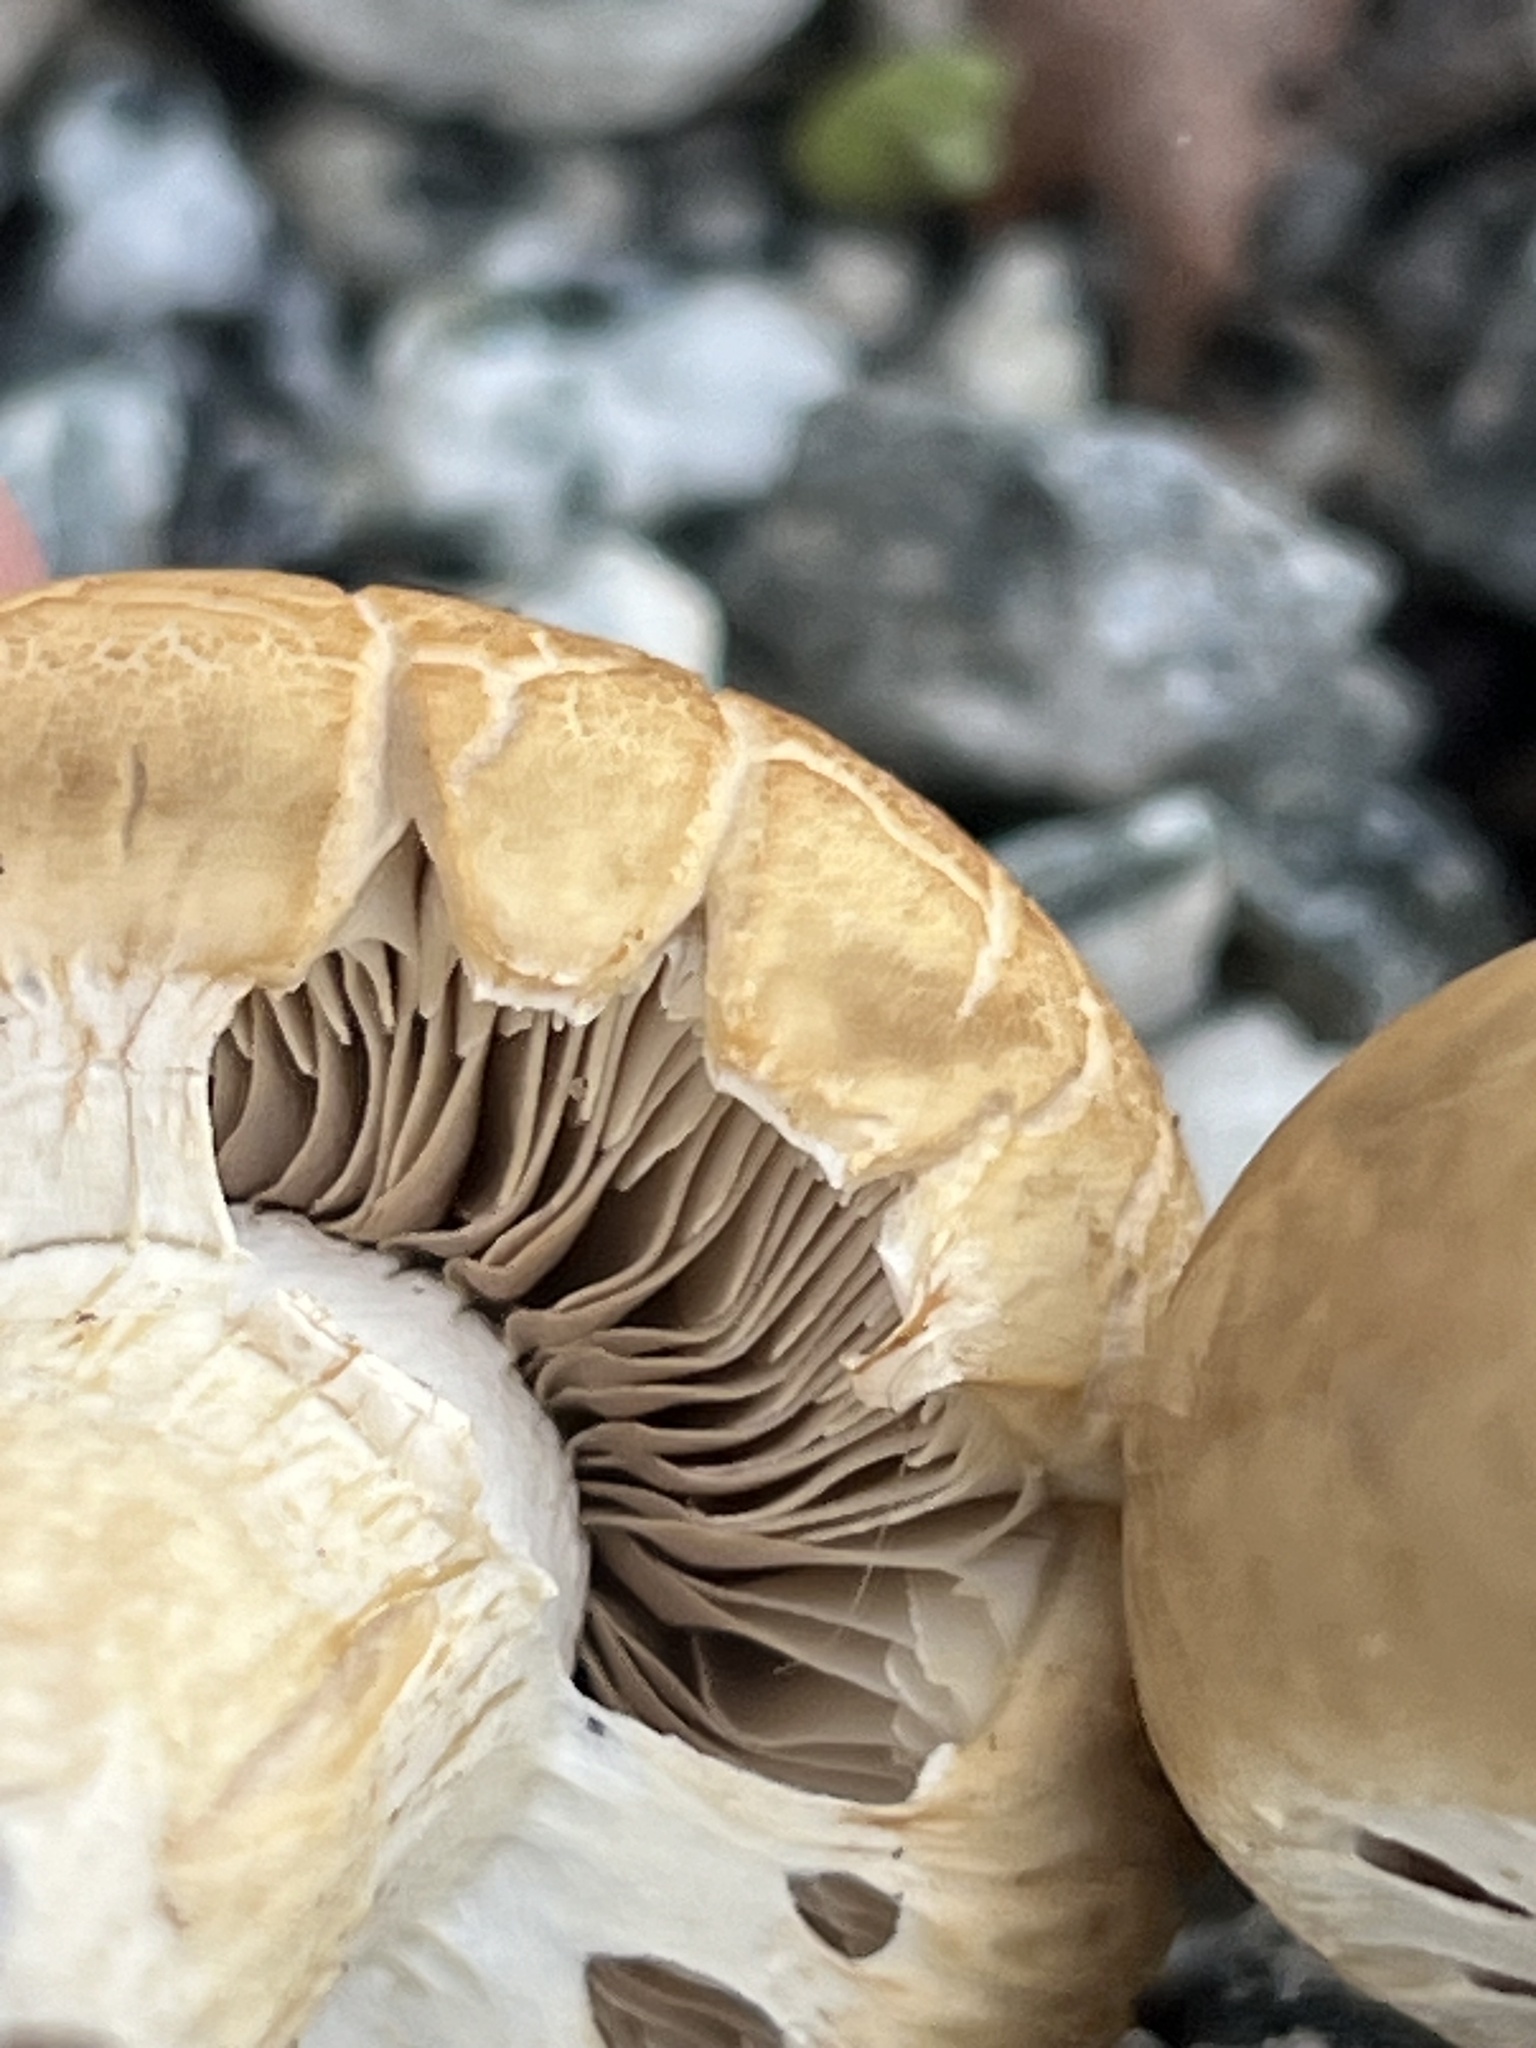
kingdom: Fungi
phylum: Basidiomycota
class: Agaricomycetes
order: Agaricales
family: Strophariaceae
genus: Agrocybe
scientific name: Agrocybe praecox
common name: Spring fieldcap
